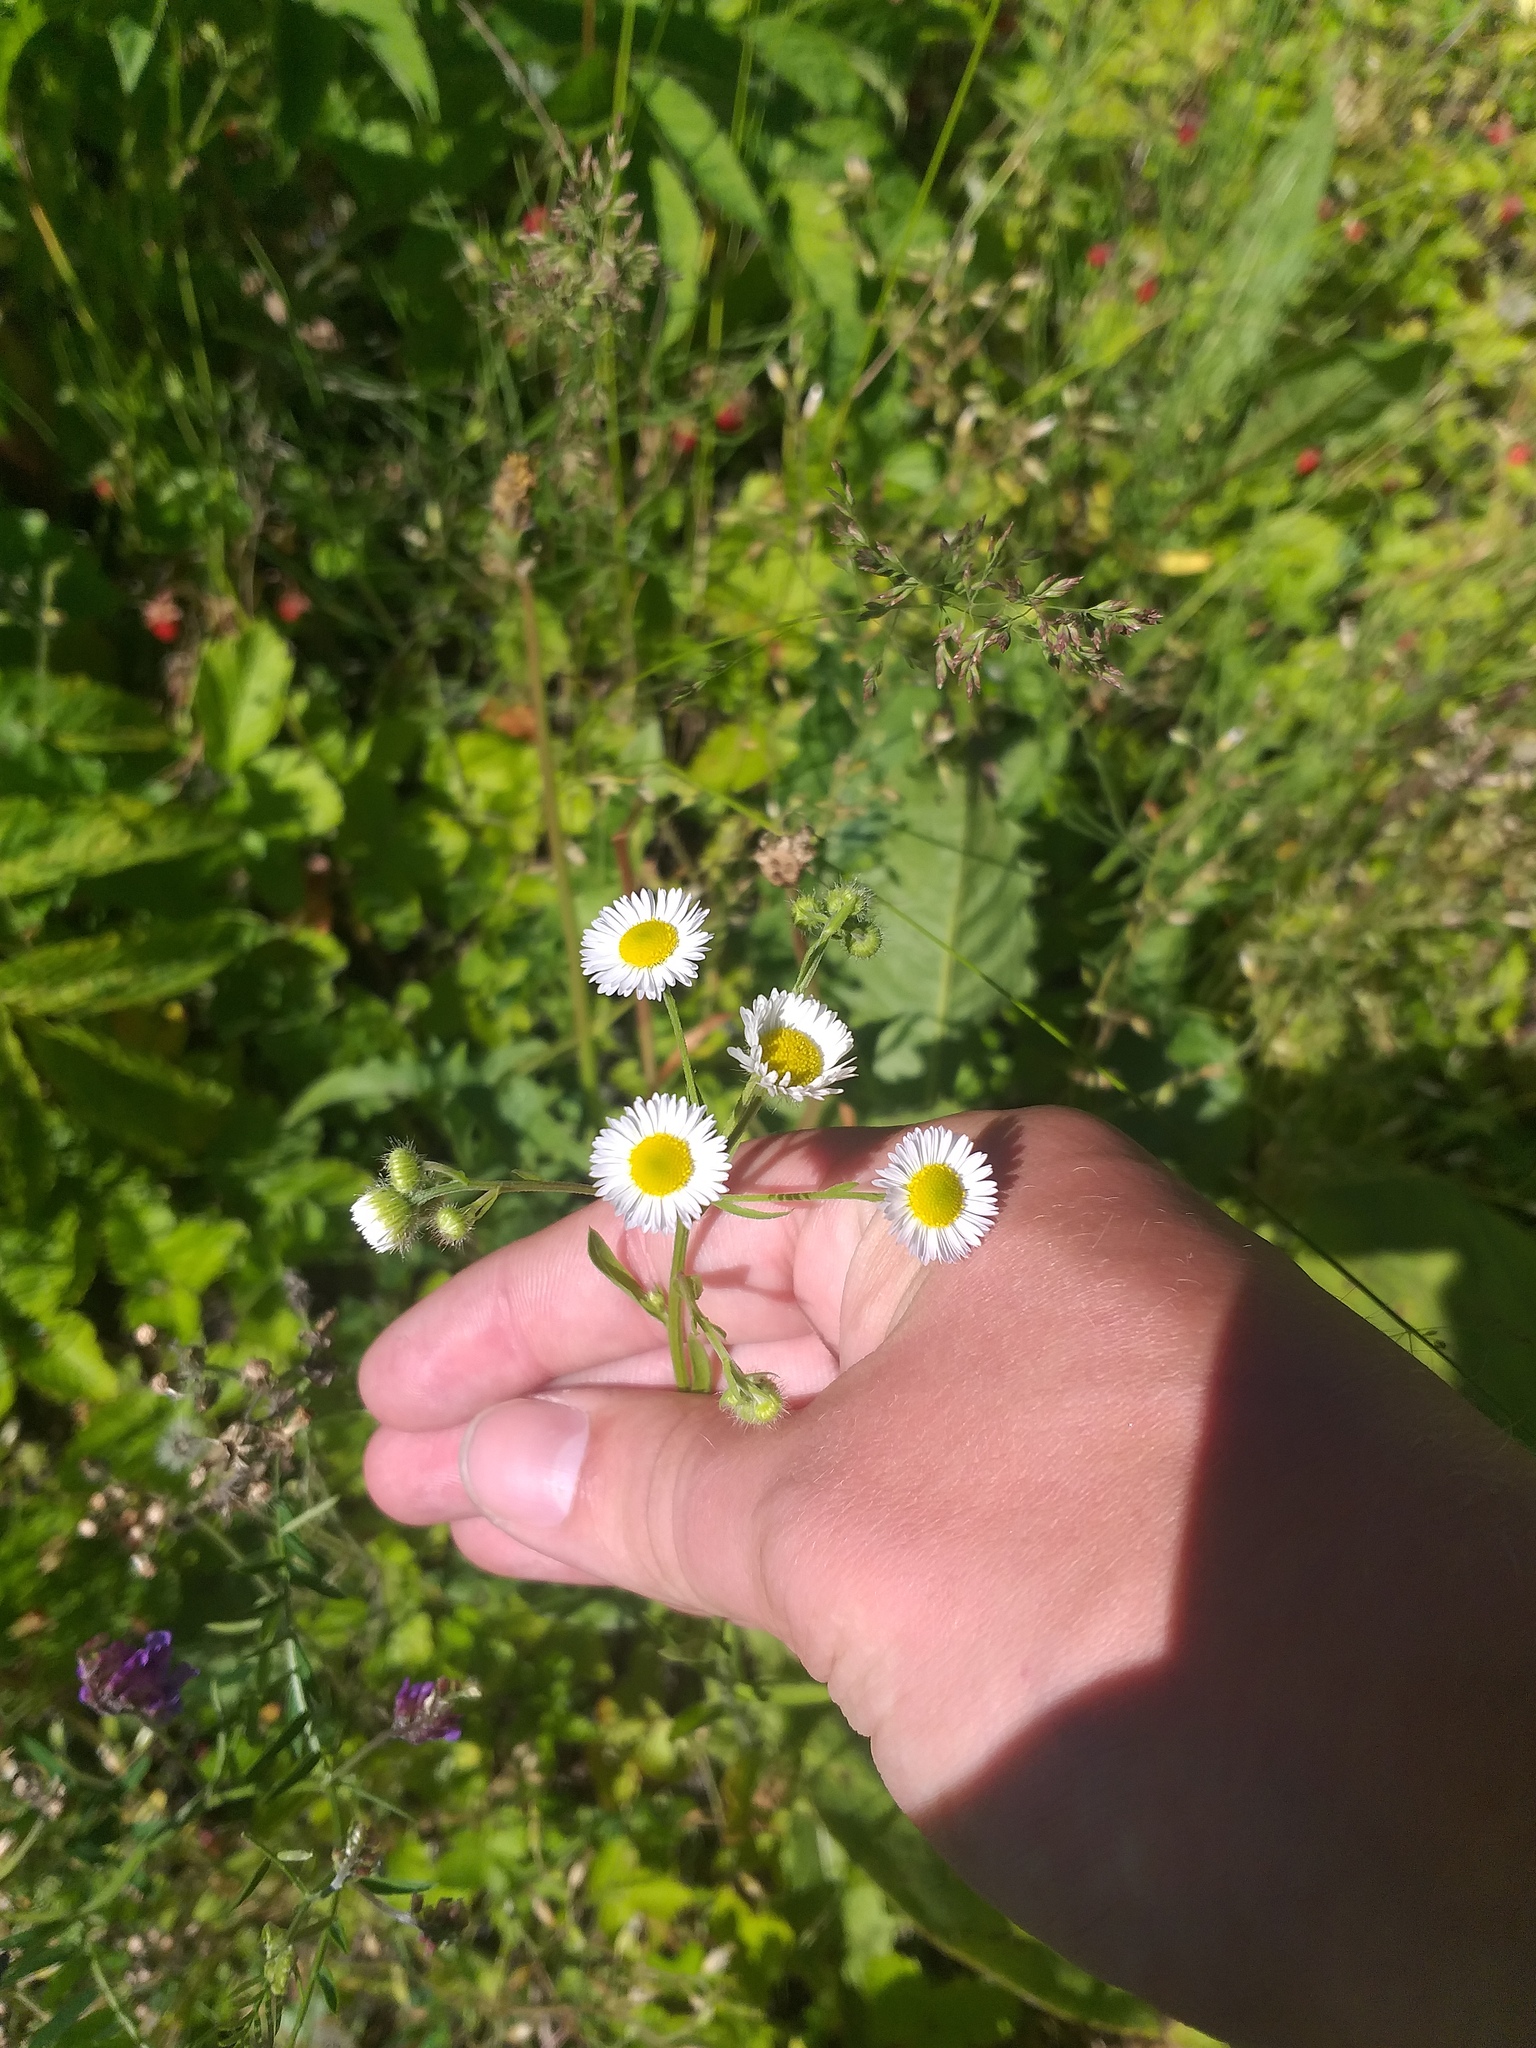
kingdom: Plantae
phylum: Tracheophyta
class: Magnoliopsida
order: Asterales
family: Asteraceae
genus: Erigeron
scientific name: Erigeron annuus
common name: Tall fleabane
